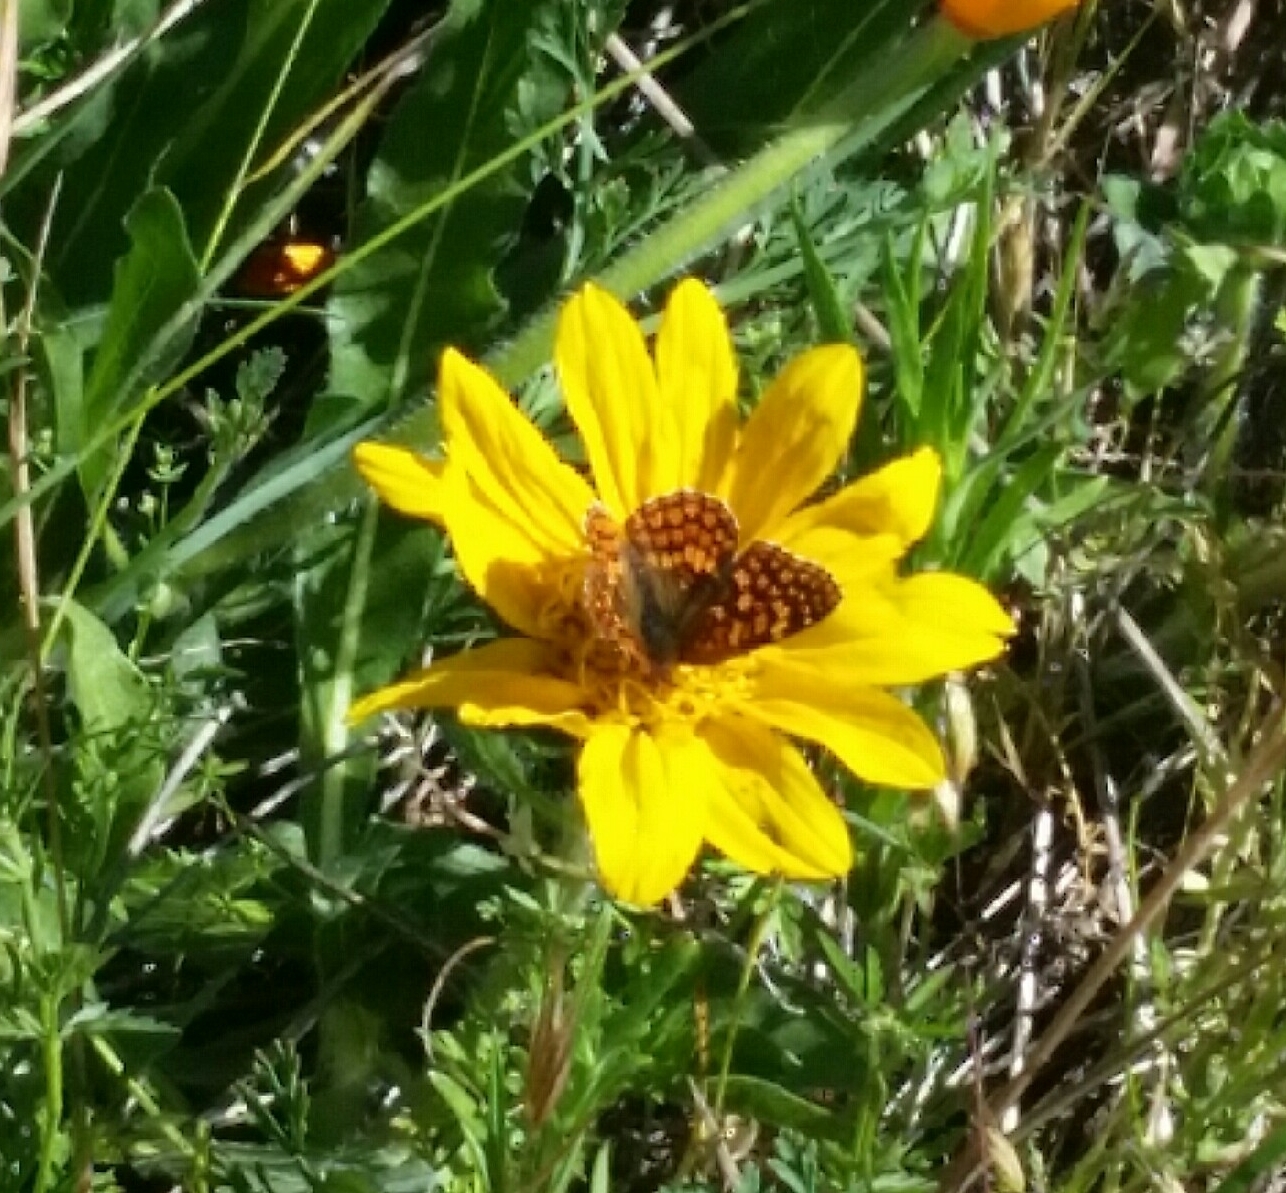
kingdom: Animalia
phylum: Arthropoda
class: Insecta
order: Lepidoptera
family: Nymphalidae
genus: Chlosyne
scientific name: Chlosyne palla
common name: Northern checkerspot
